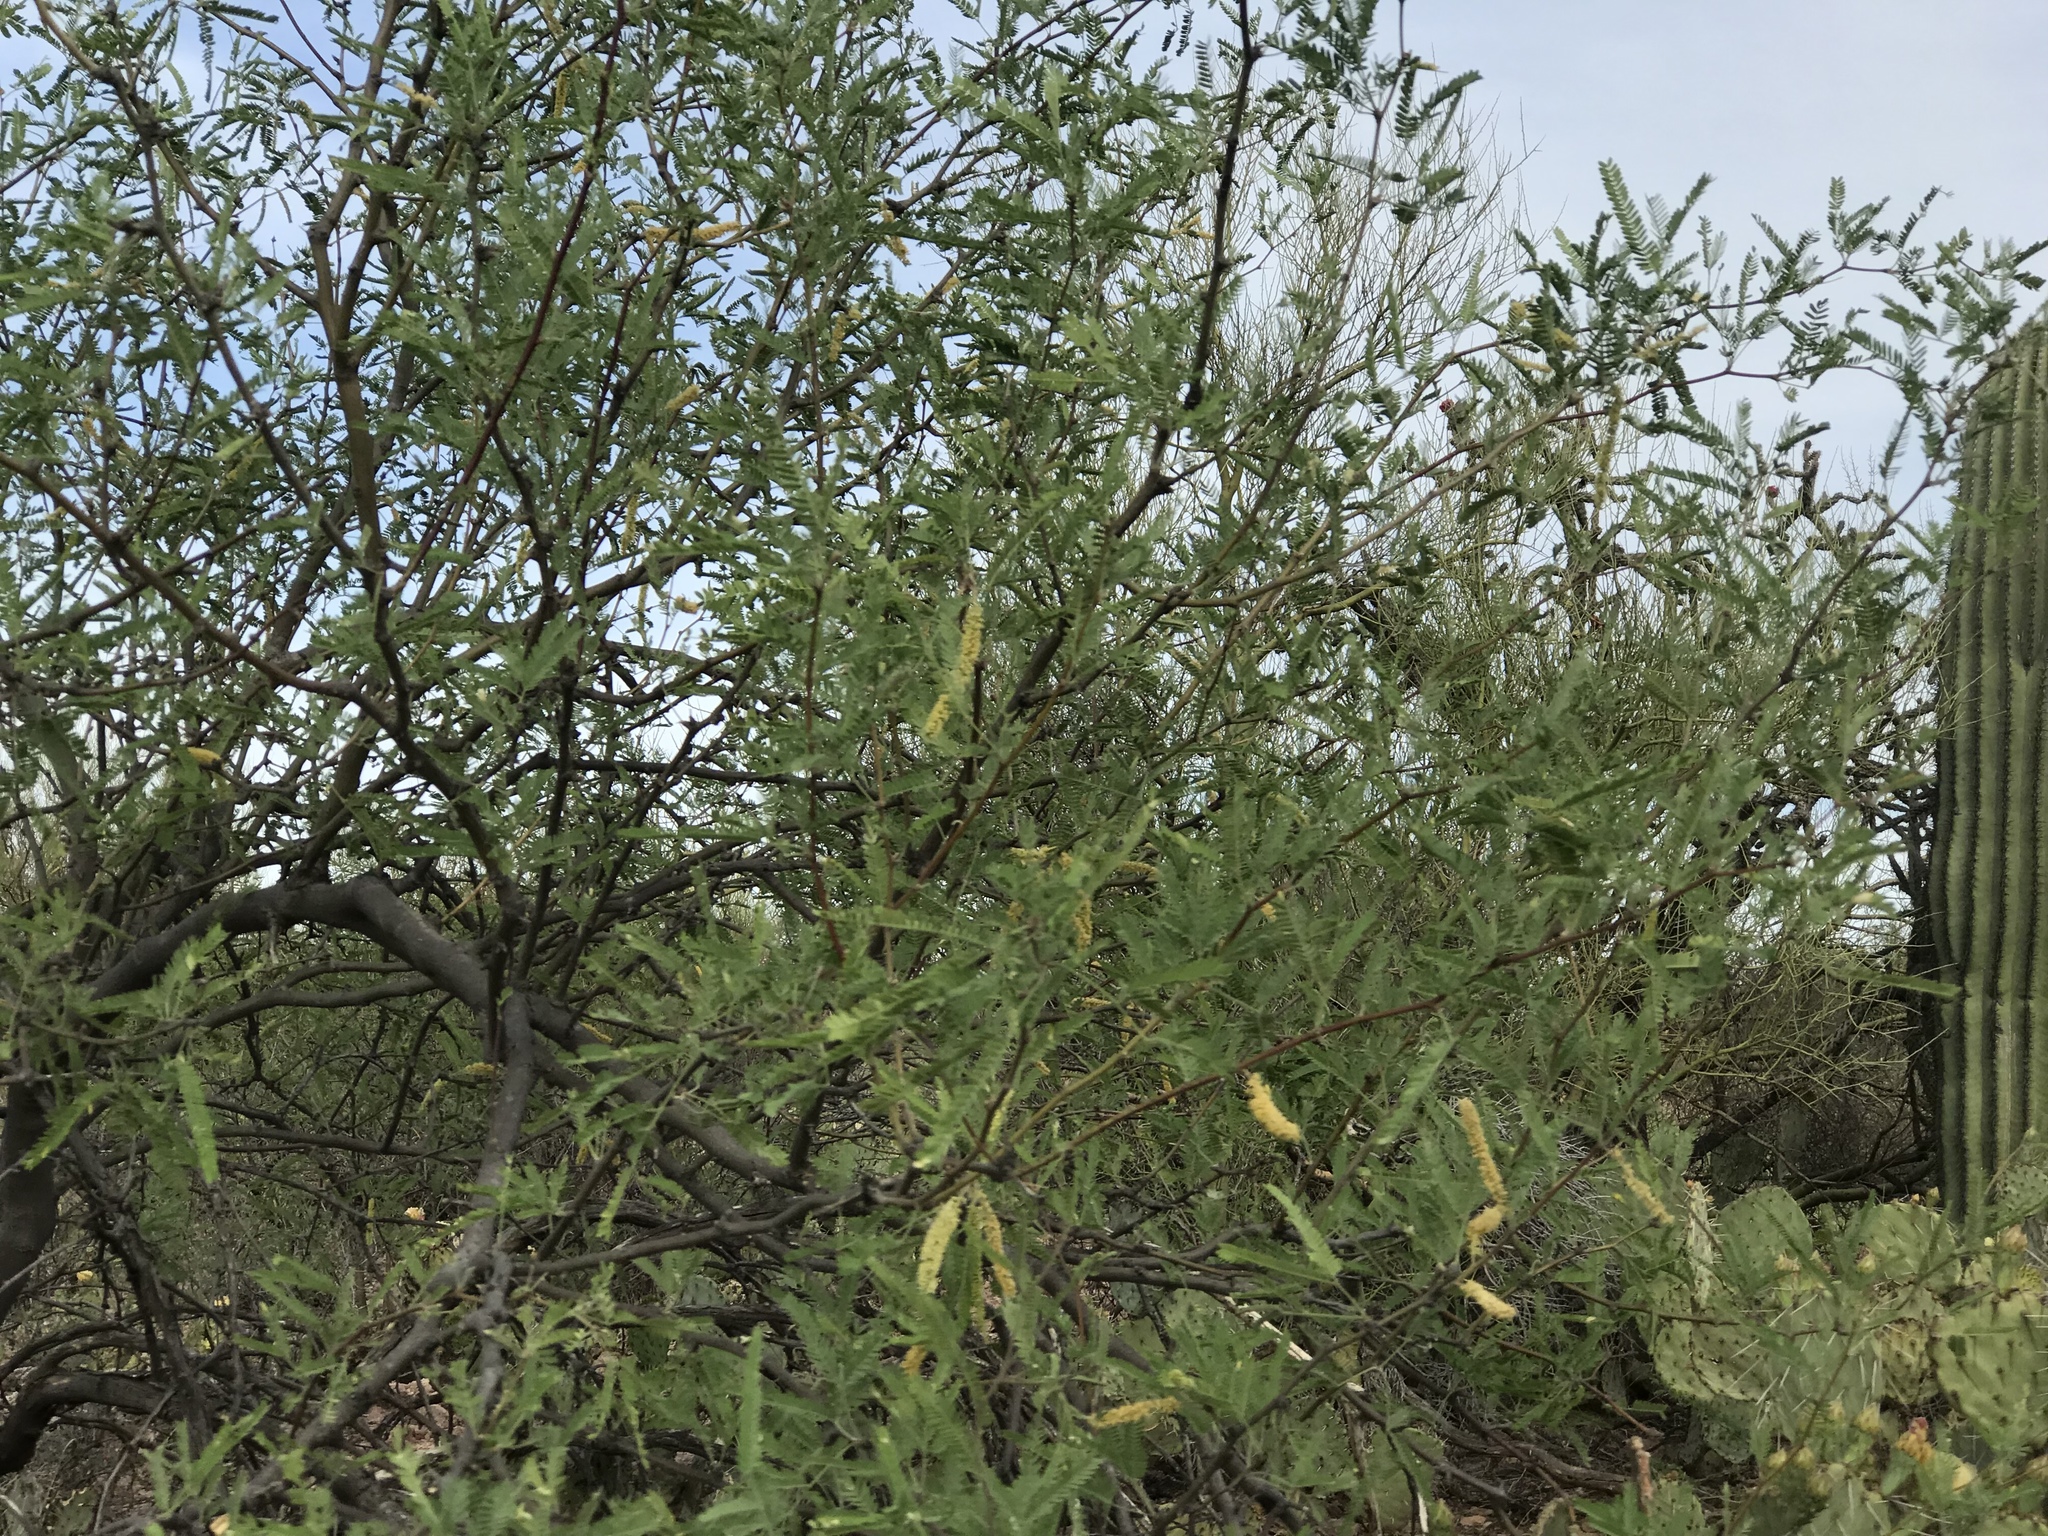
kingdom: Plantae
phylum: Tracheophyta
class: Magnoliopsida
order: Fabales
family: Fabaceae
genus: Prosopis
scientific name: Prosopis velutina
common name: Velvet mesquite
